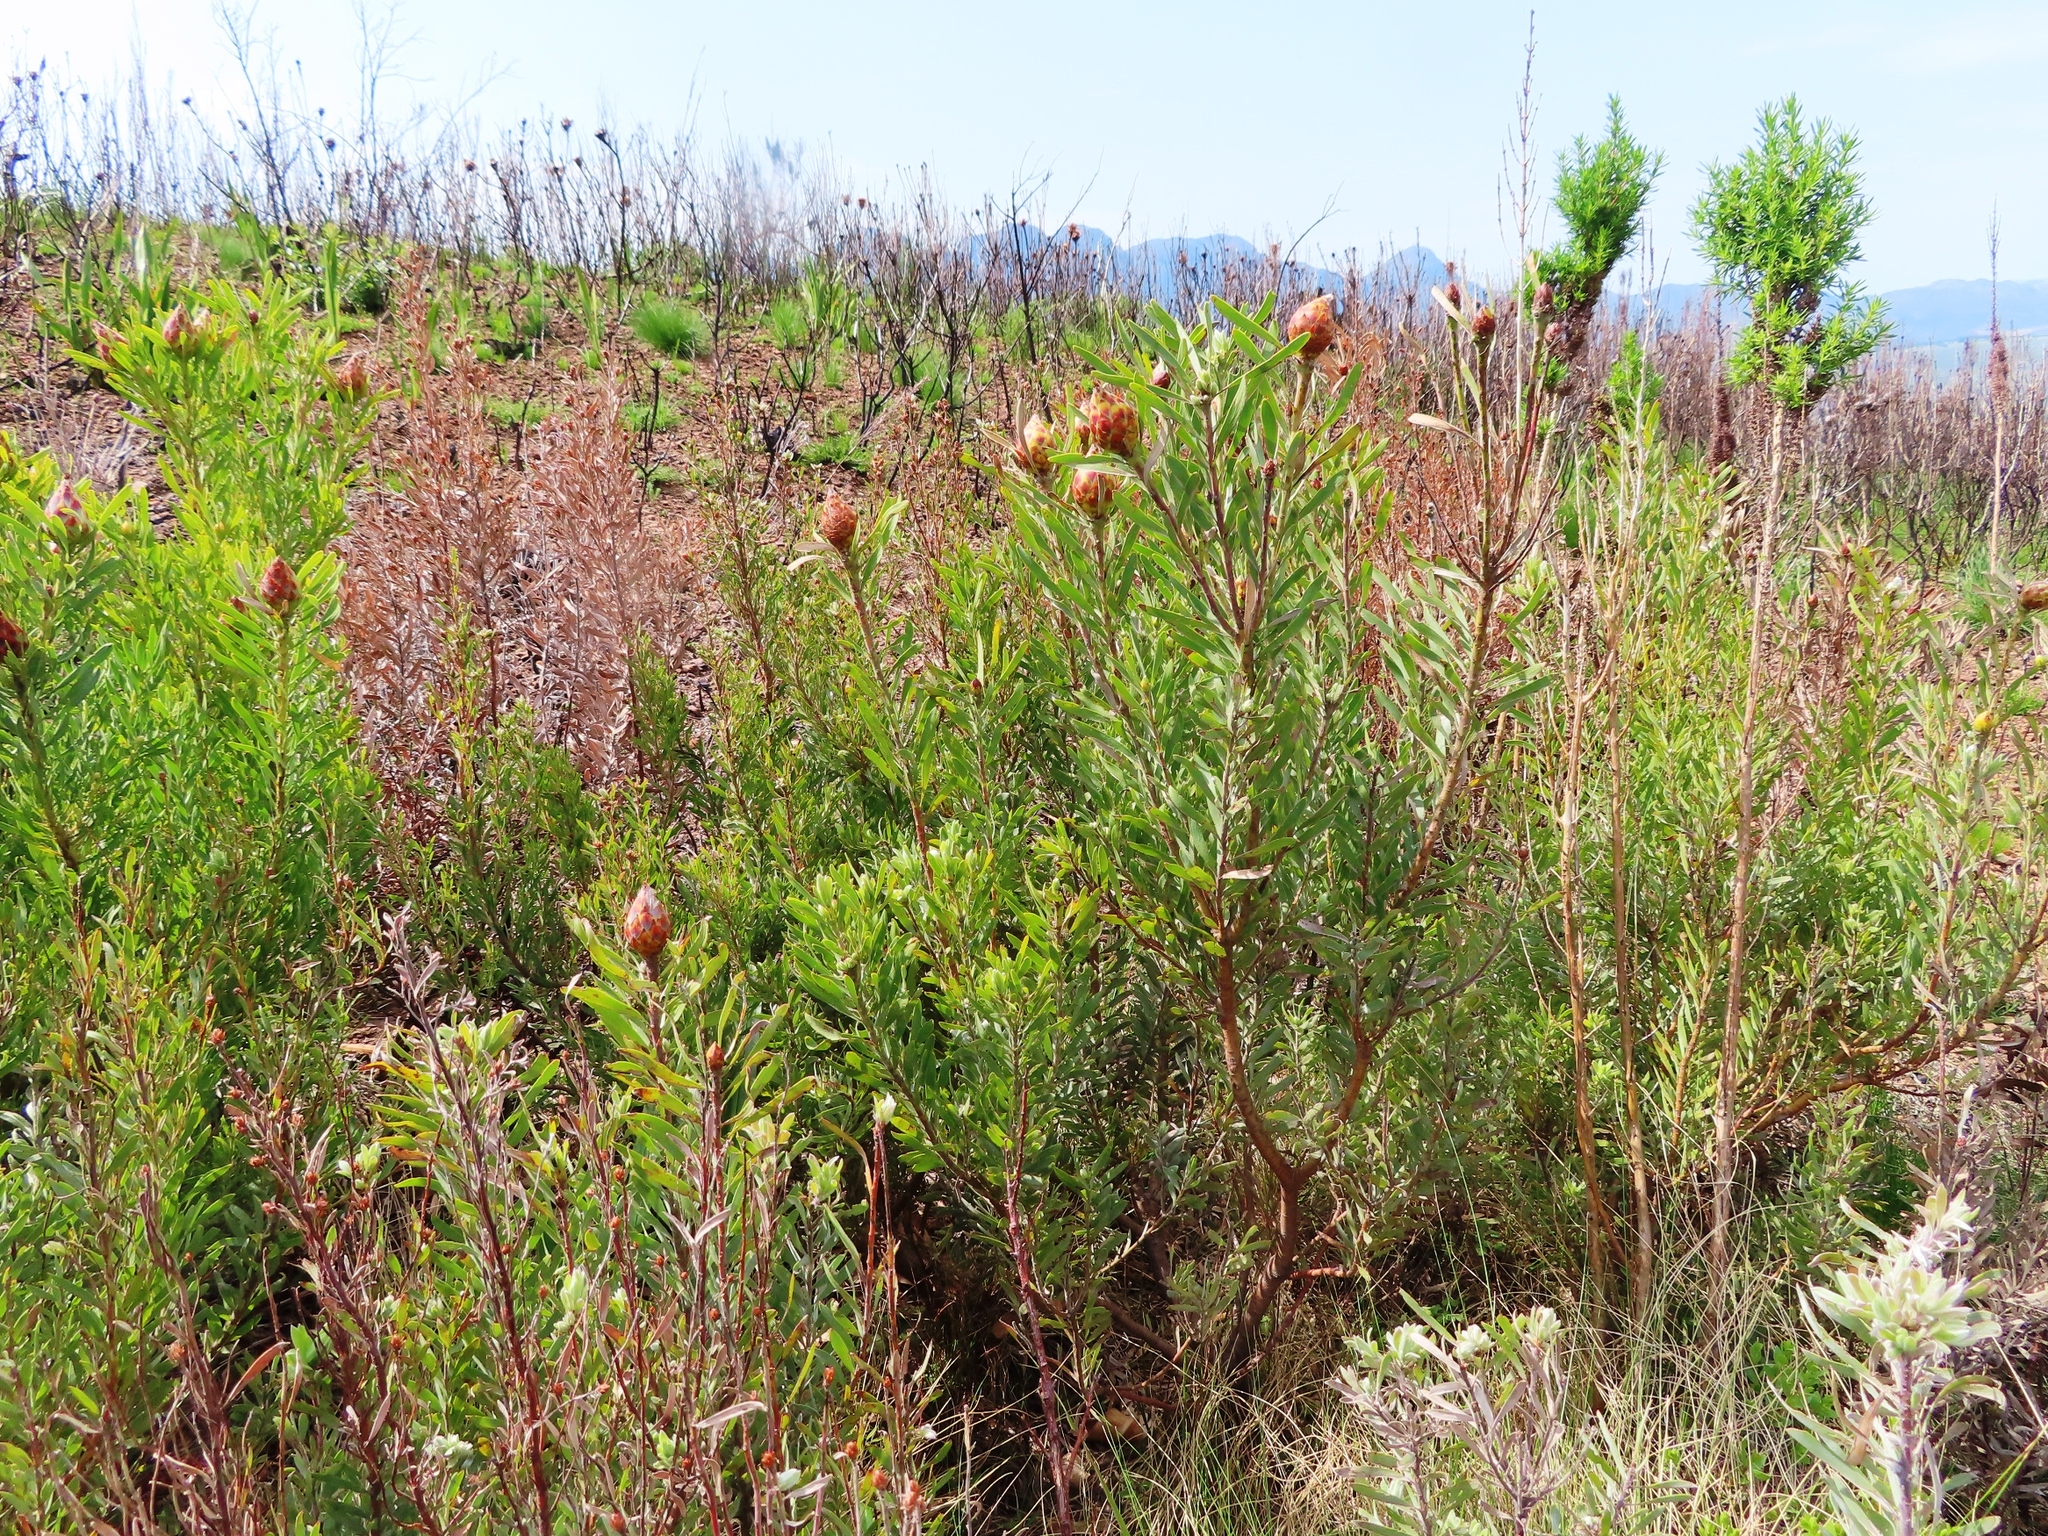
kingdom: Plantae
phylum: Tracheophyta
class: Magnoliopsida
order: Proteales
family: Proteaceae
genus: Leucadendron
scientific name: Leucadendron rubrum
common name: Spinning top
